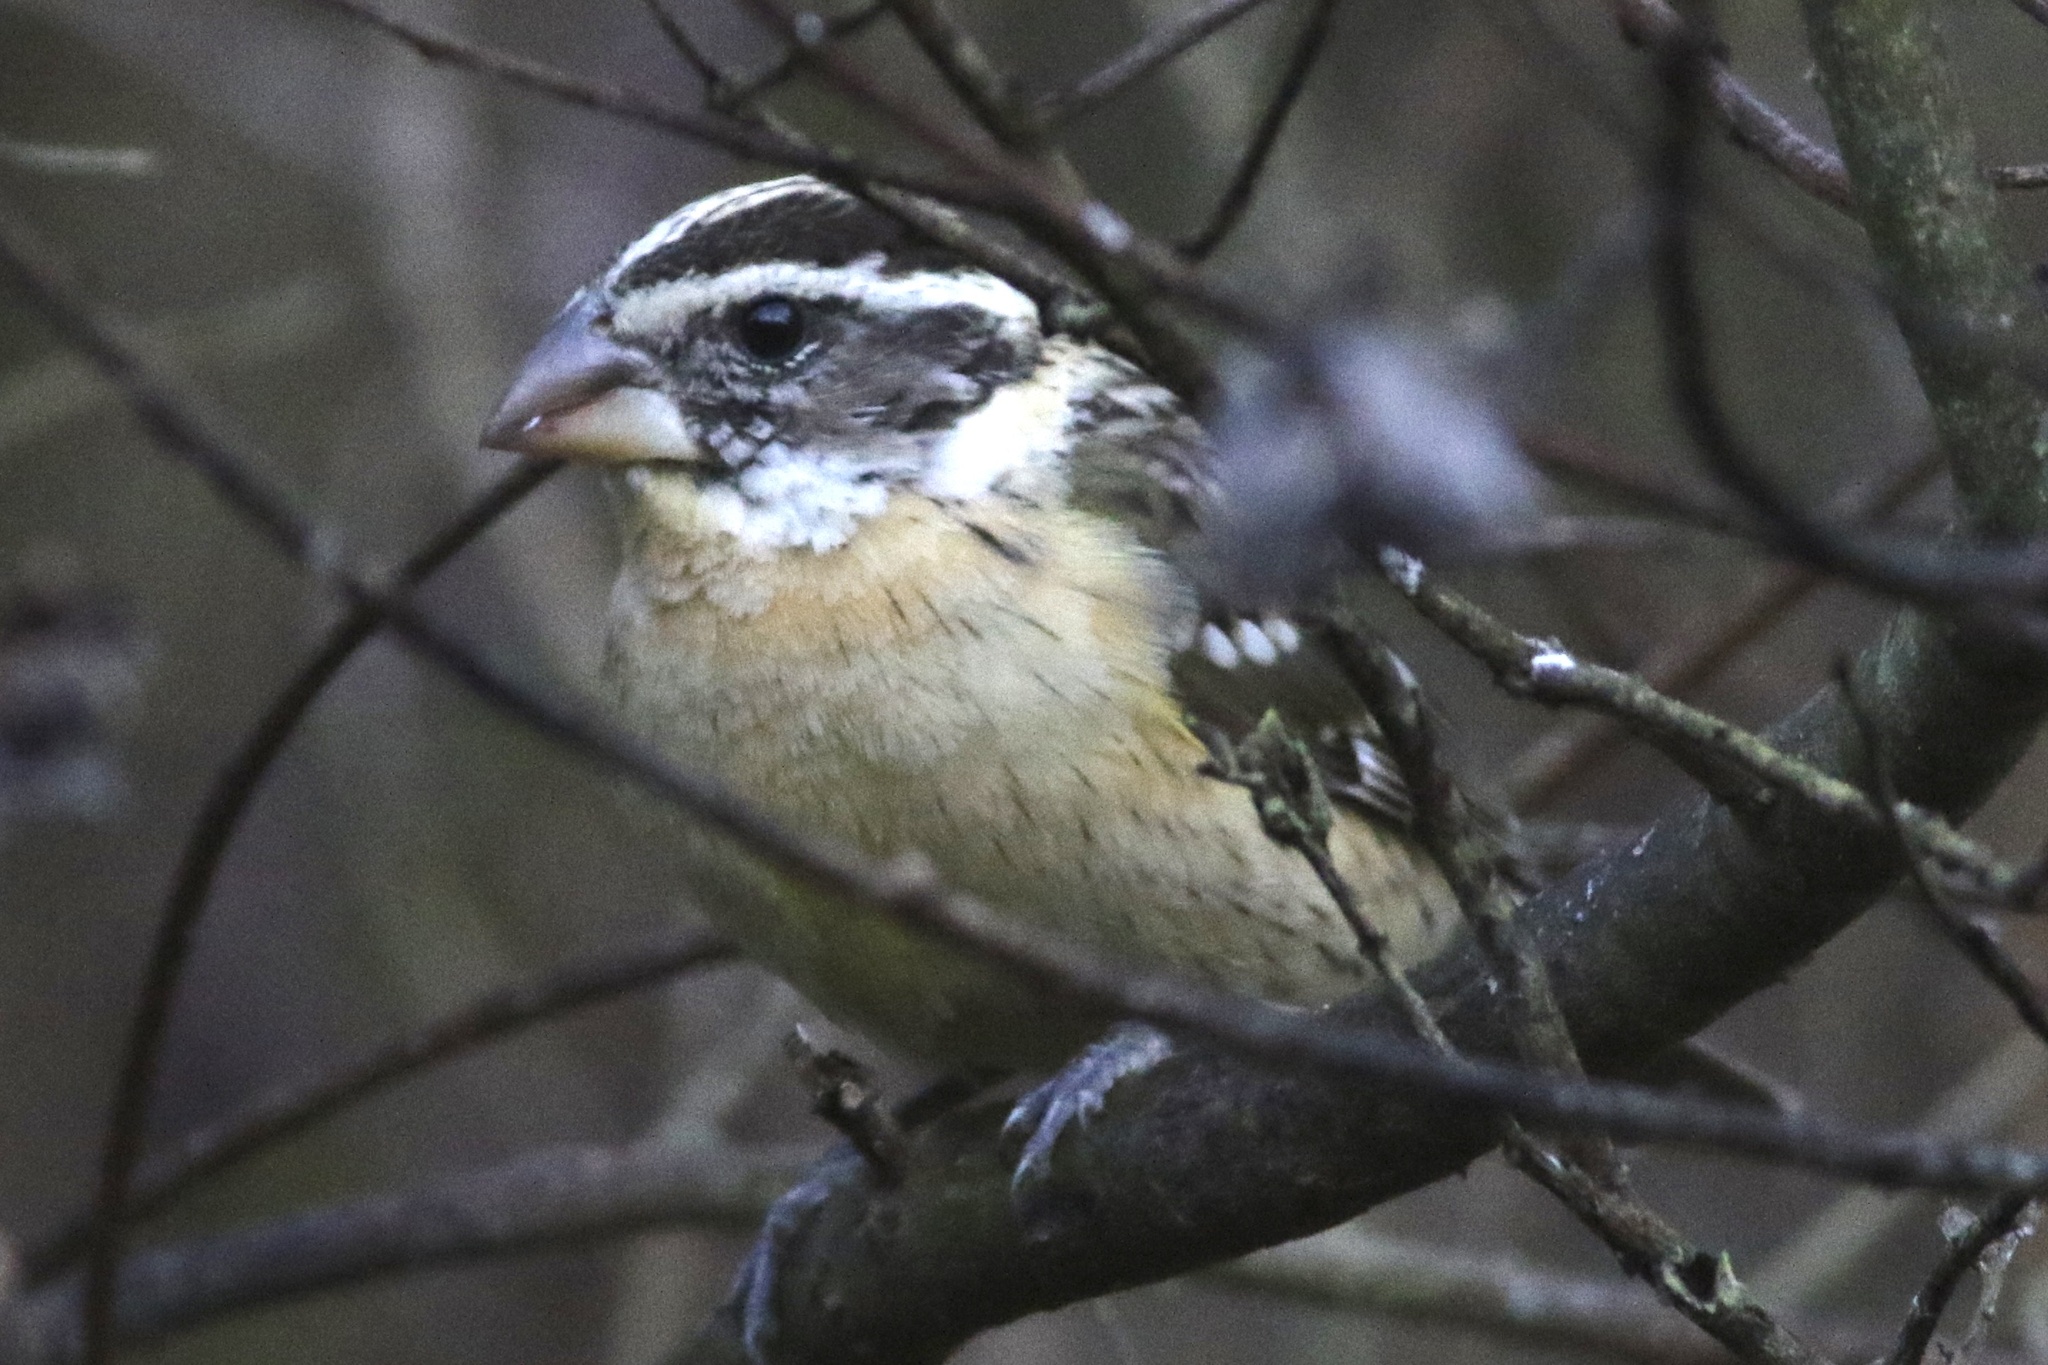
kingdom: Animalia
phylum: Chordata
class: Aves
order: Passeriformes
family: Cardinalidae
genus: Pheucticus
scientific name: Pheucticus melanocephalus
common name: Black-headed grosbeak
